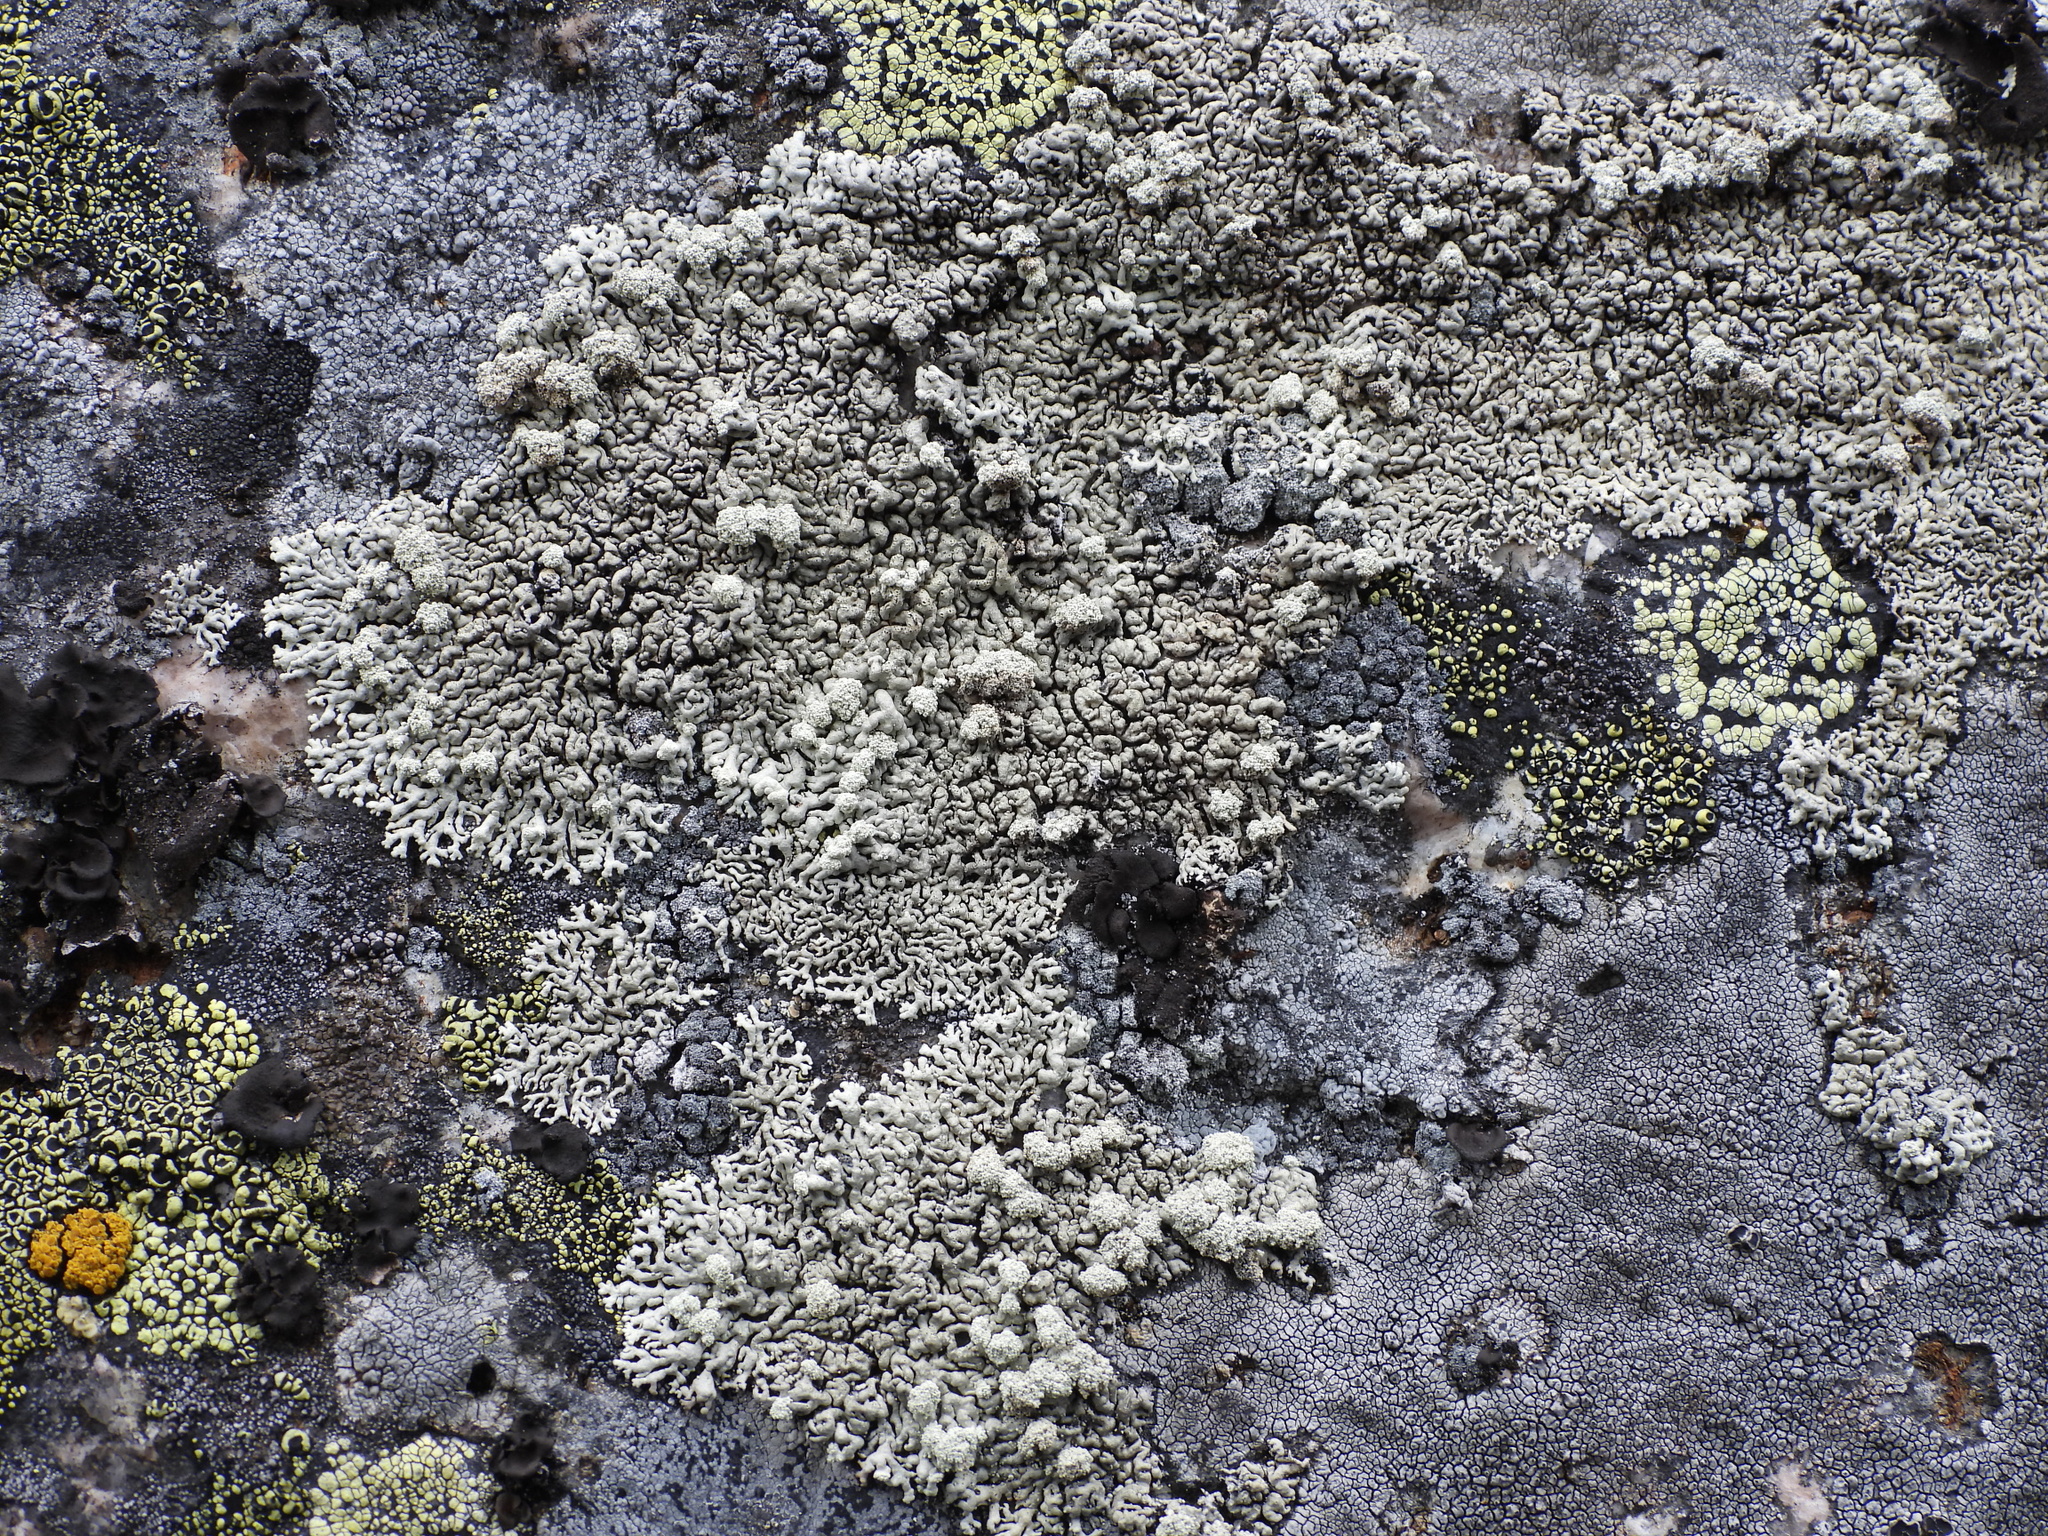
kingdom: Fungi
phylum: Ascomycota
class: Lecanoromycetes
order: Lecanorales
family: Parmeliaceae
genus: Arctoparmelia
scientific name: Arctoparmelia incurva
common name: Bent ring lichen
